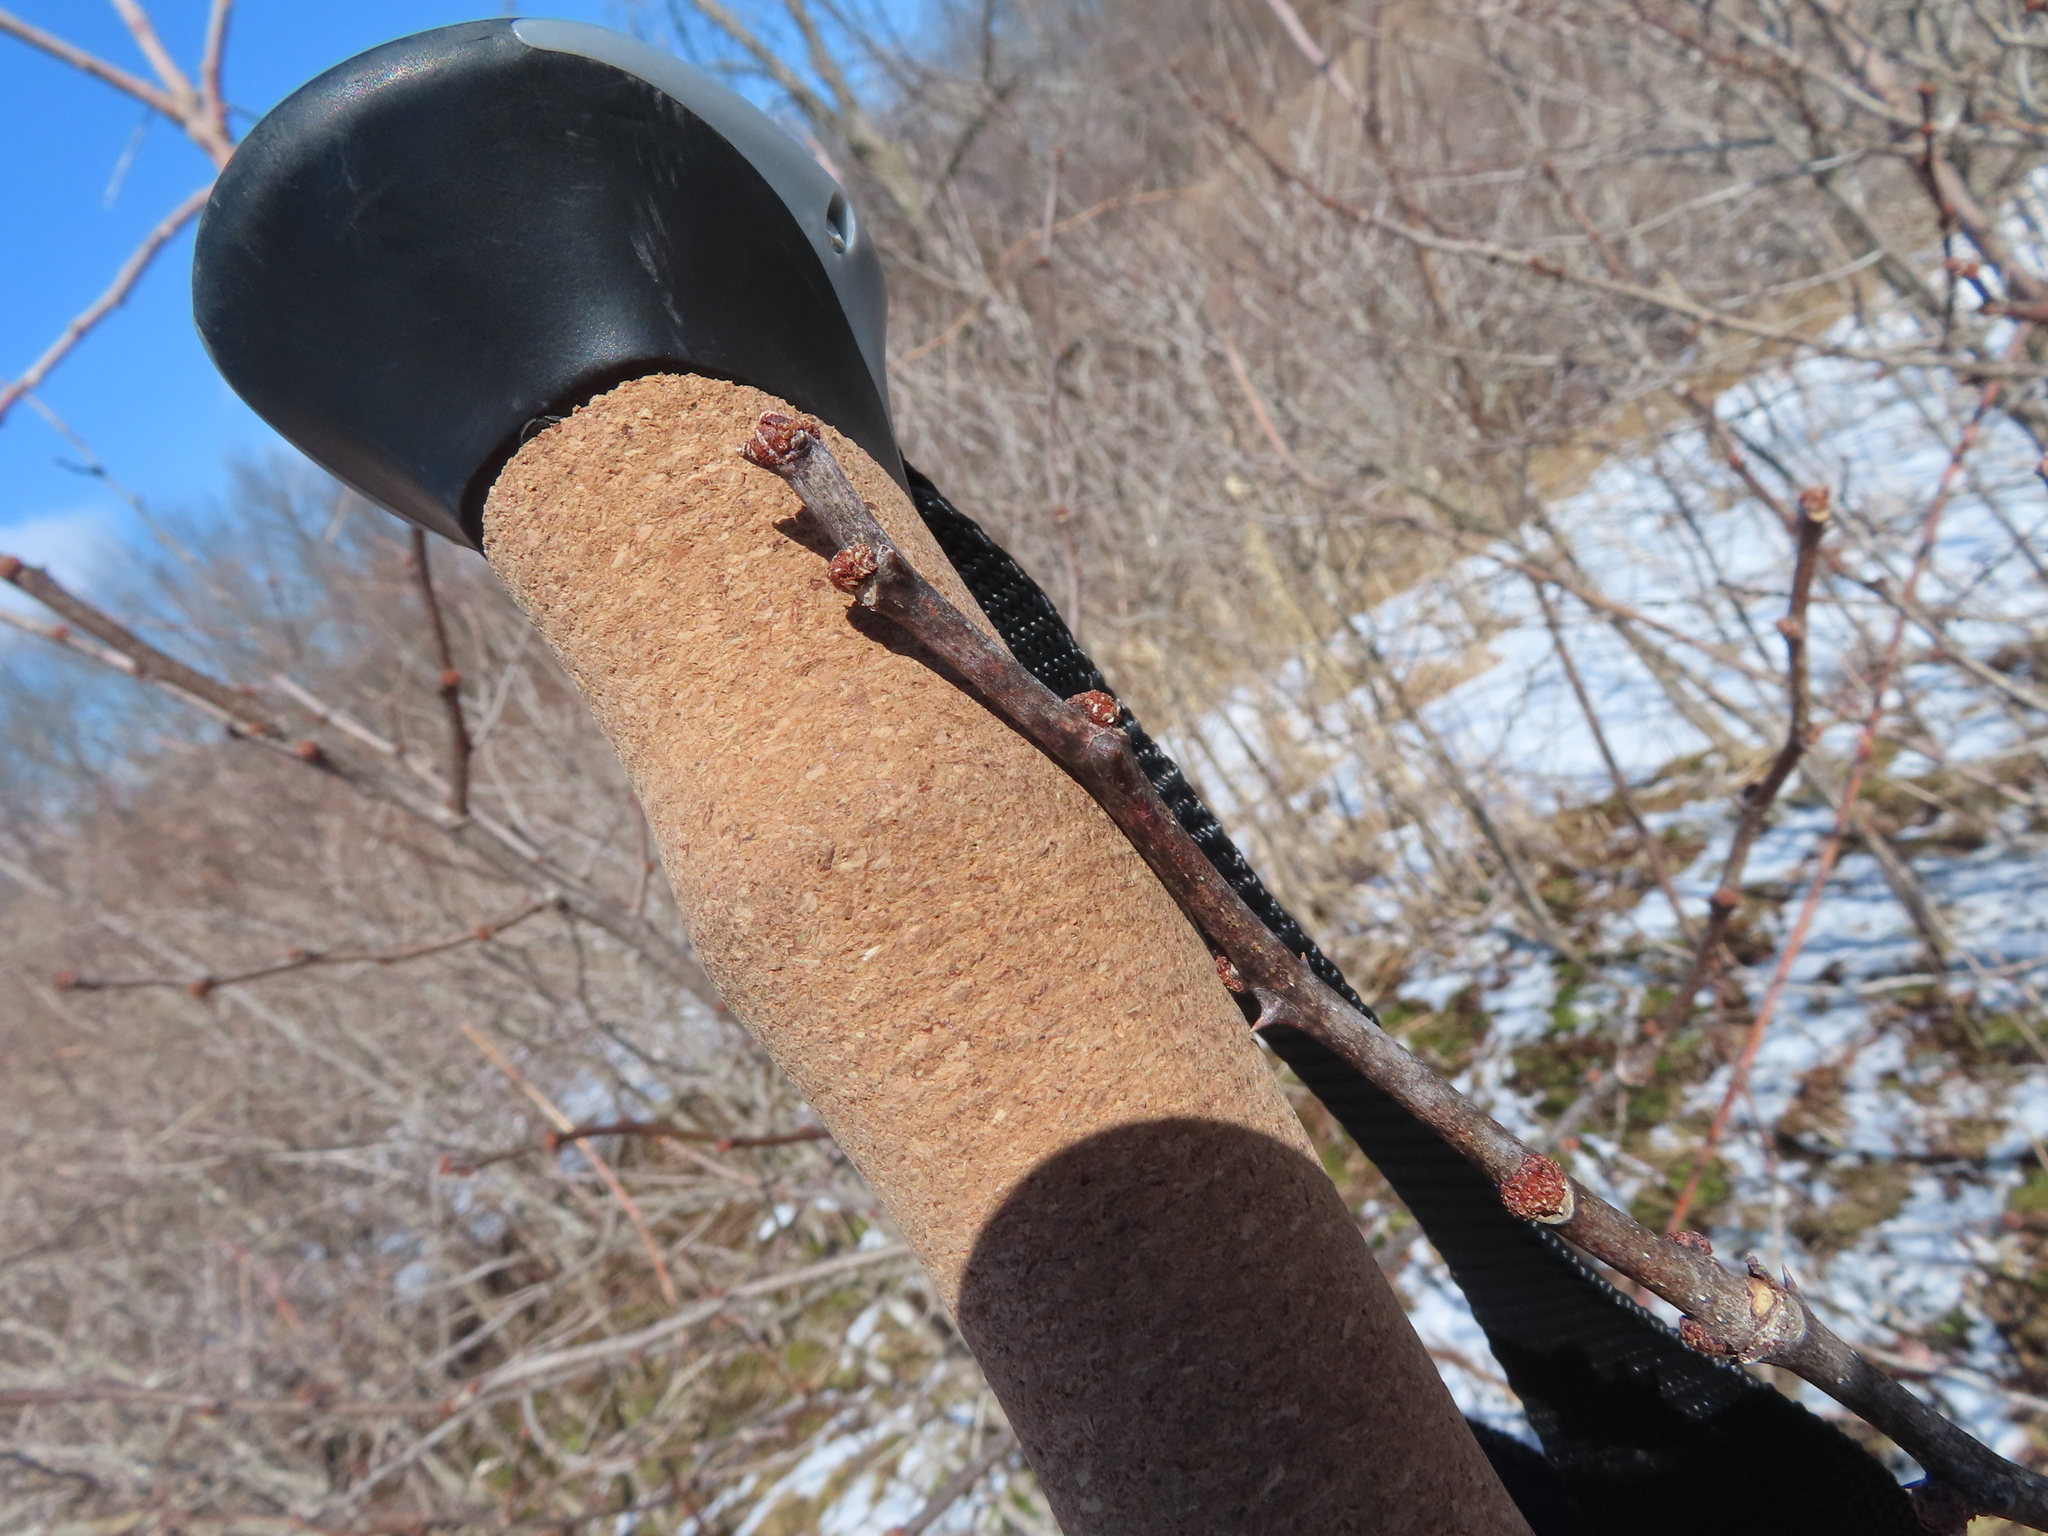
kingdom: Plantae
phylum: Tracheophyta
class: Magnoliopsida
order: Sapindales
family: Rutaceae
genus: Zanthoxylum
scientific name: Zanthoxylum americanum
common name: Northern prickly-ash
